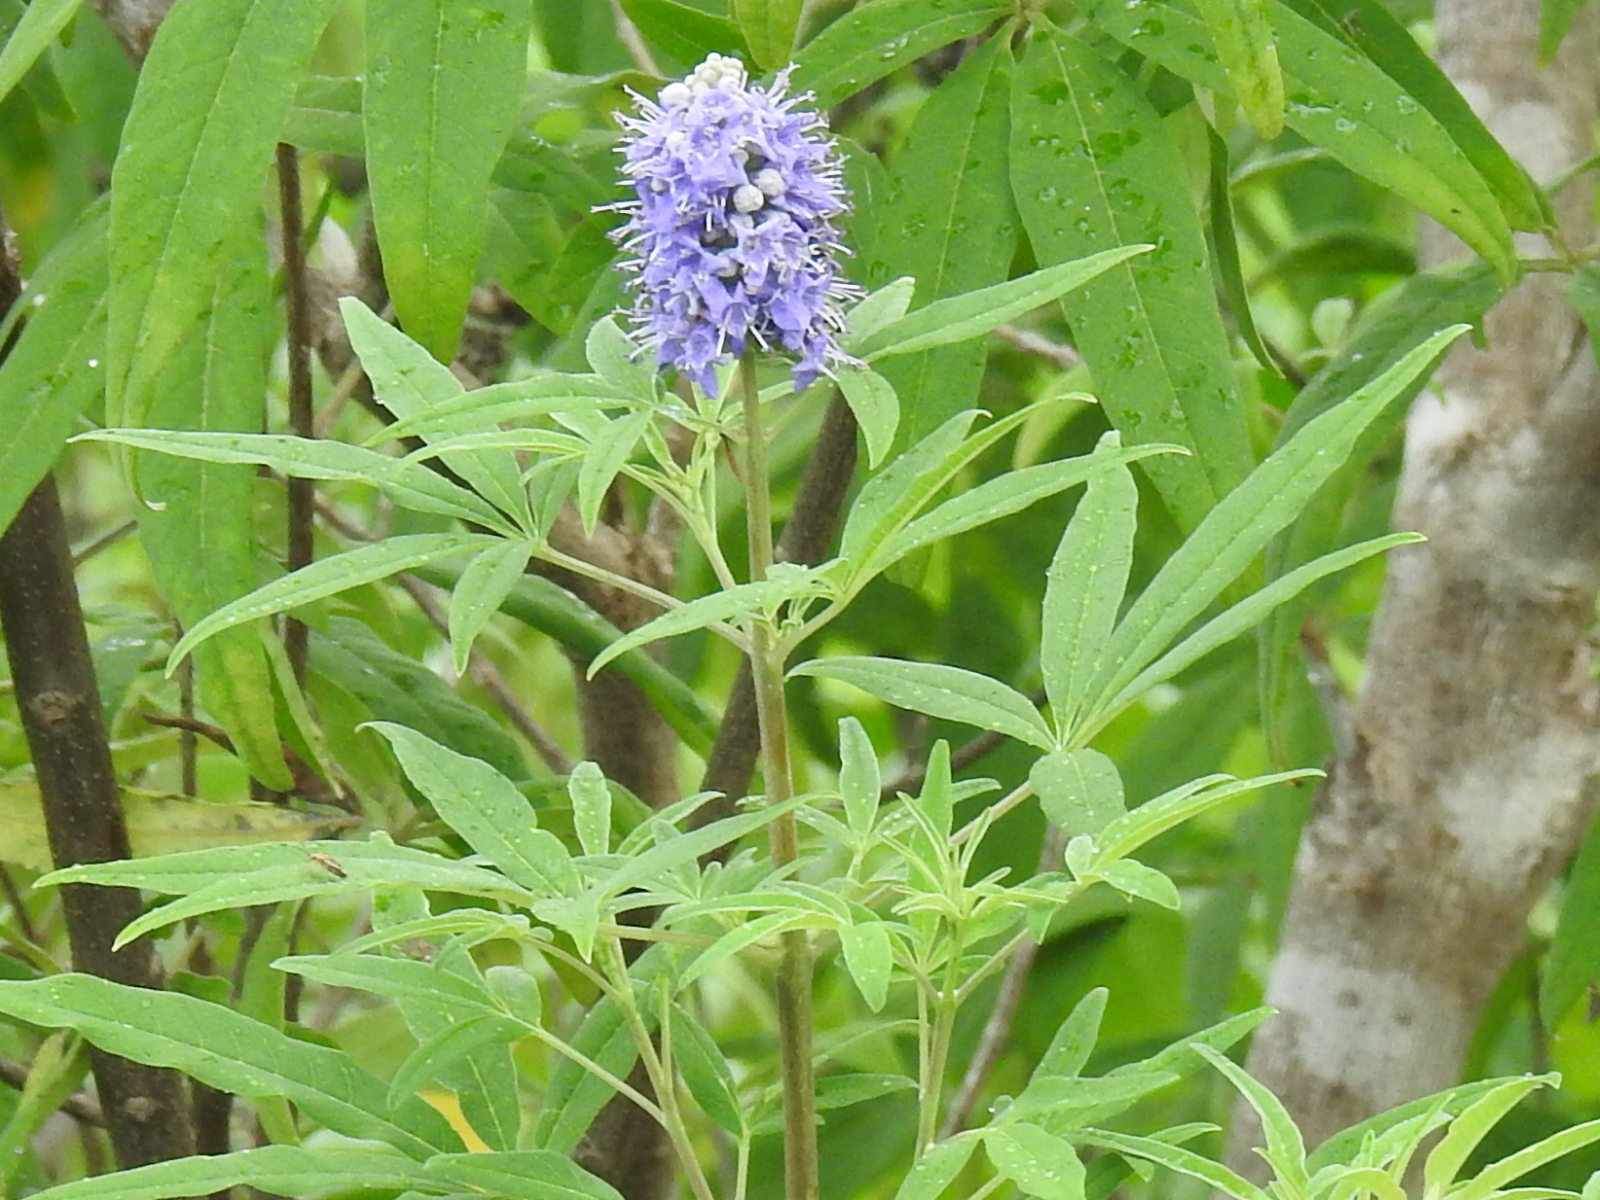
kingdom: Plantae
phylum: Tracheophyta
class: Magnoliopsida
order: Lamiales
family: Lamiaceae
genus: Vitex
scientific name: Vitex agnus-castus
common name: Chasteberry
